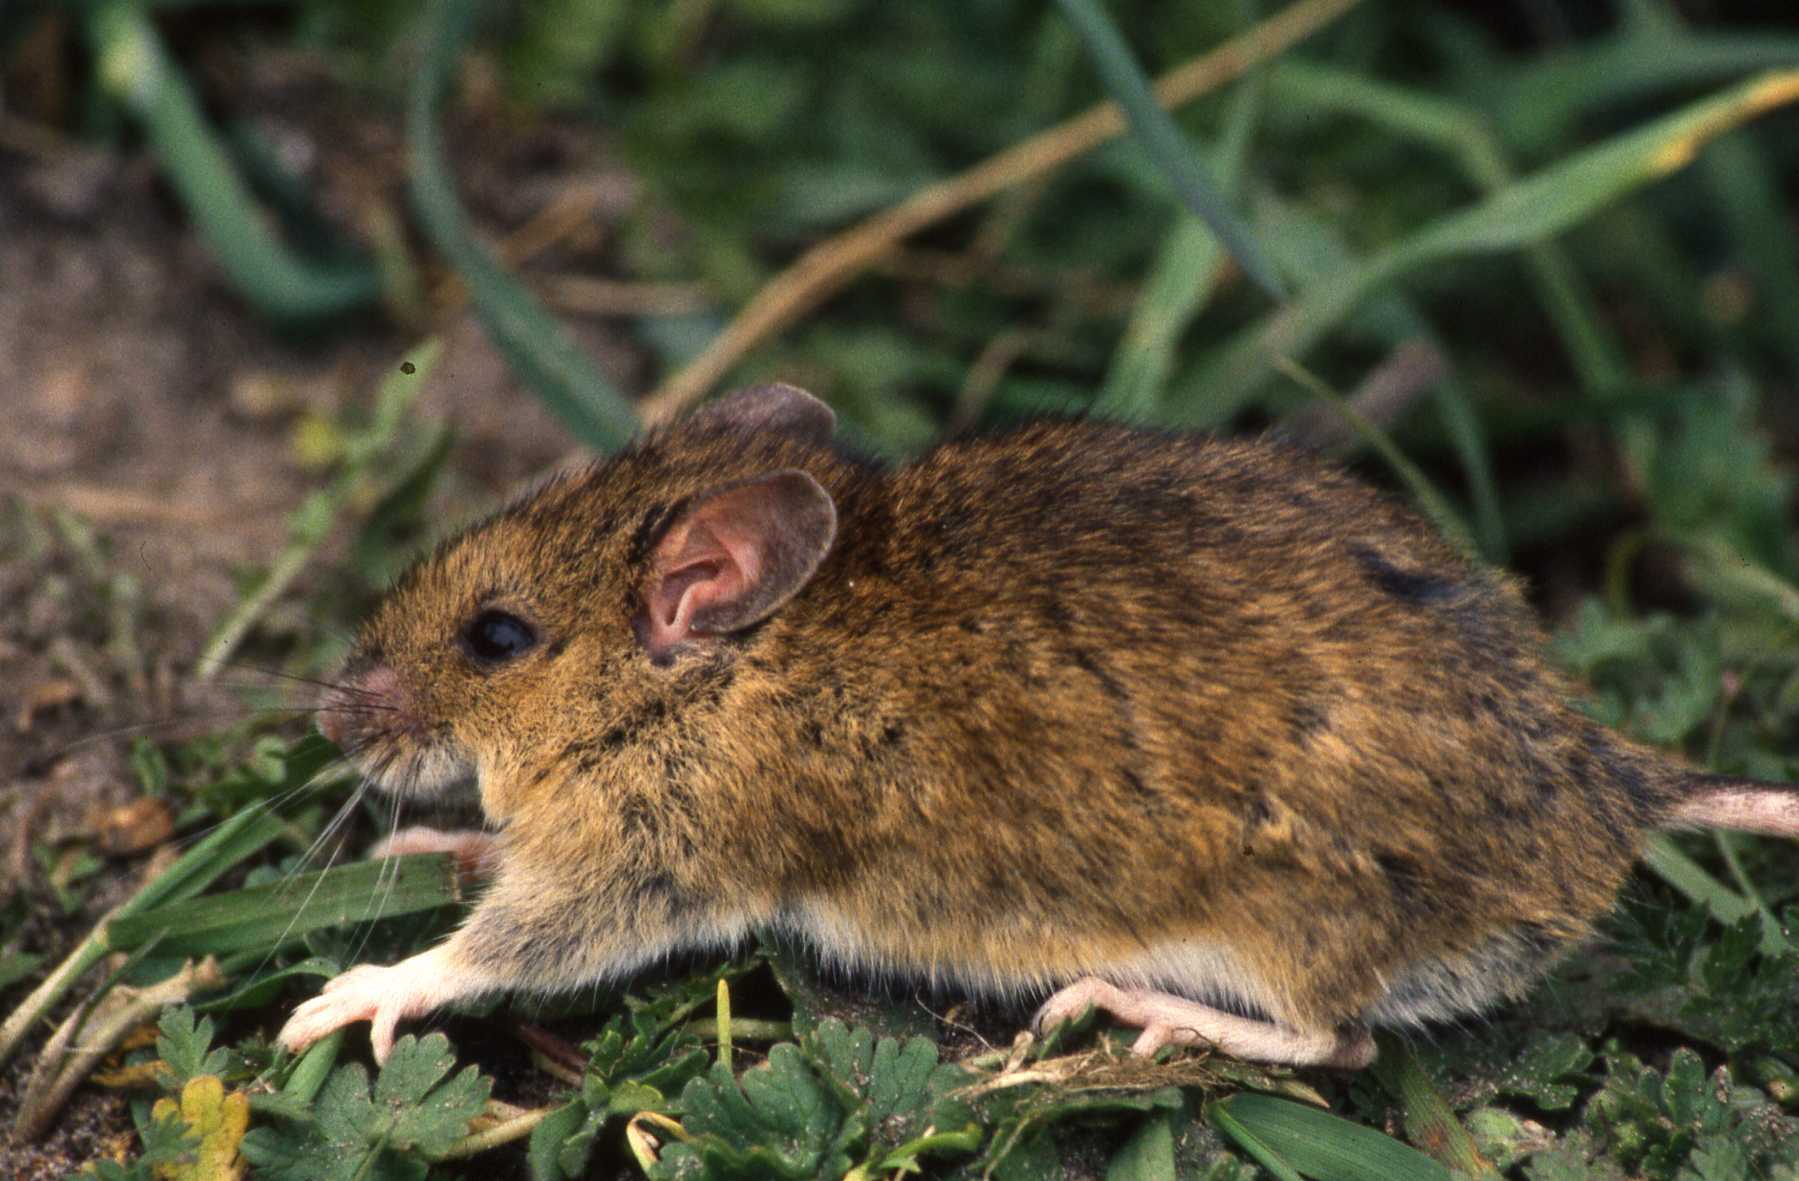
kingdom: Animalia
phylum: Chordata
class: Mammalia
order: Rodentia
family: Muridae
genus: Apodemus
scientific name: Apodemus sylvaticus
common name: Wood mouse
